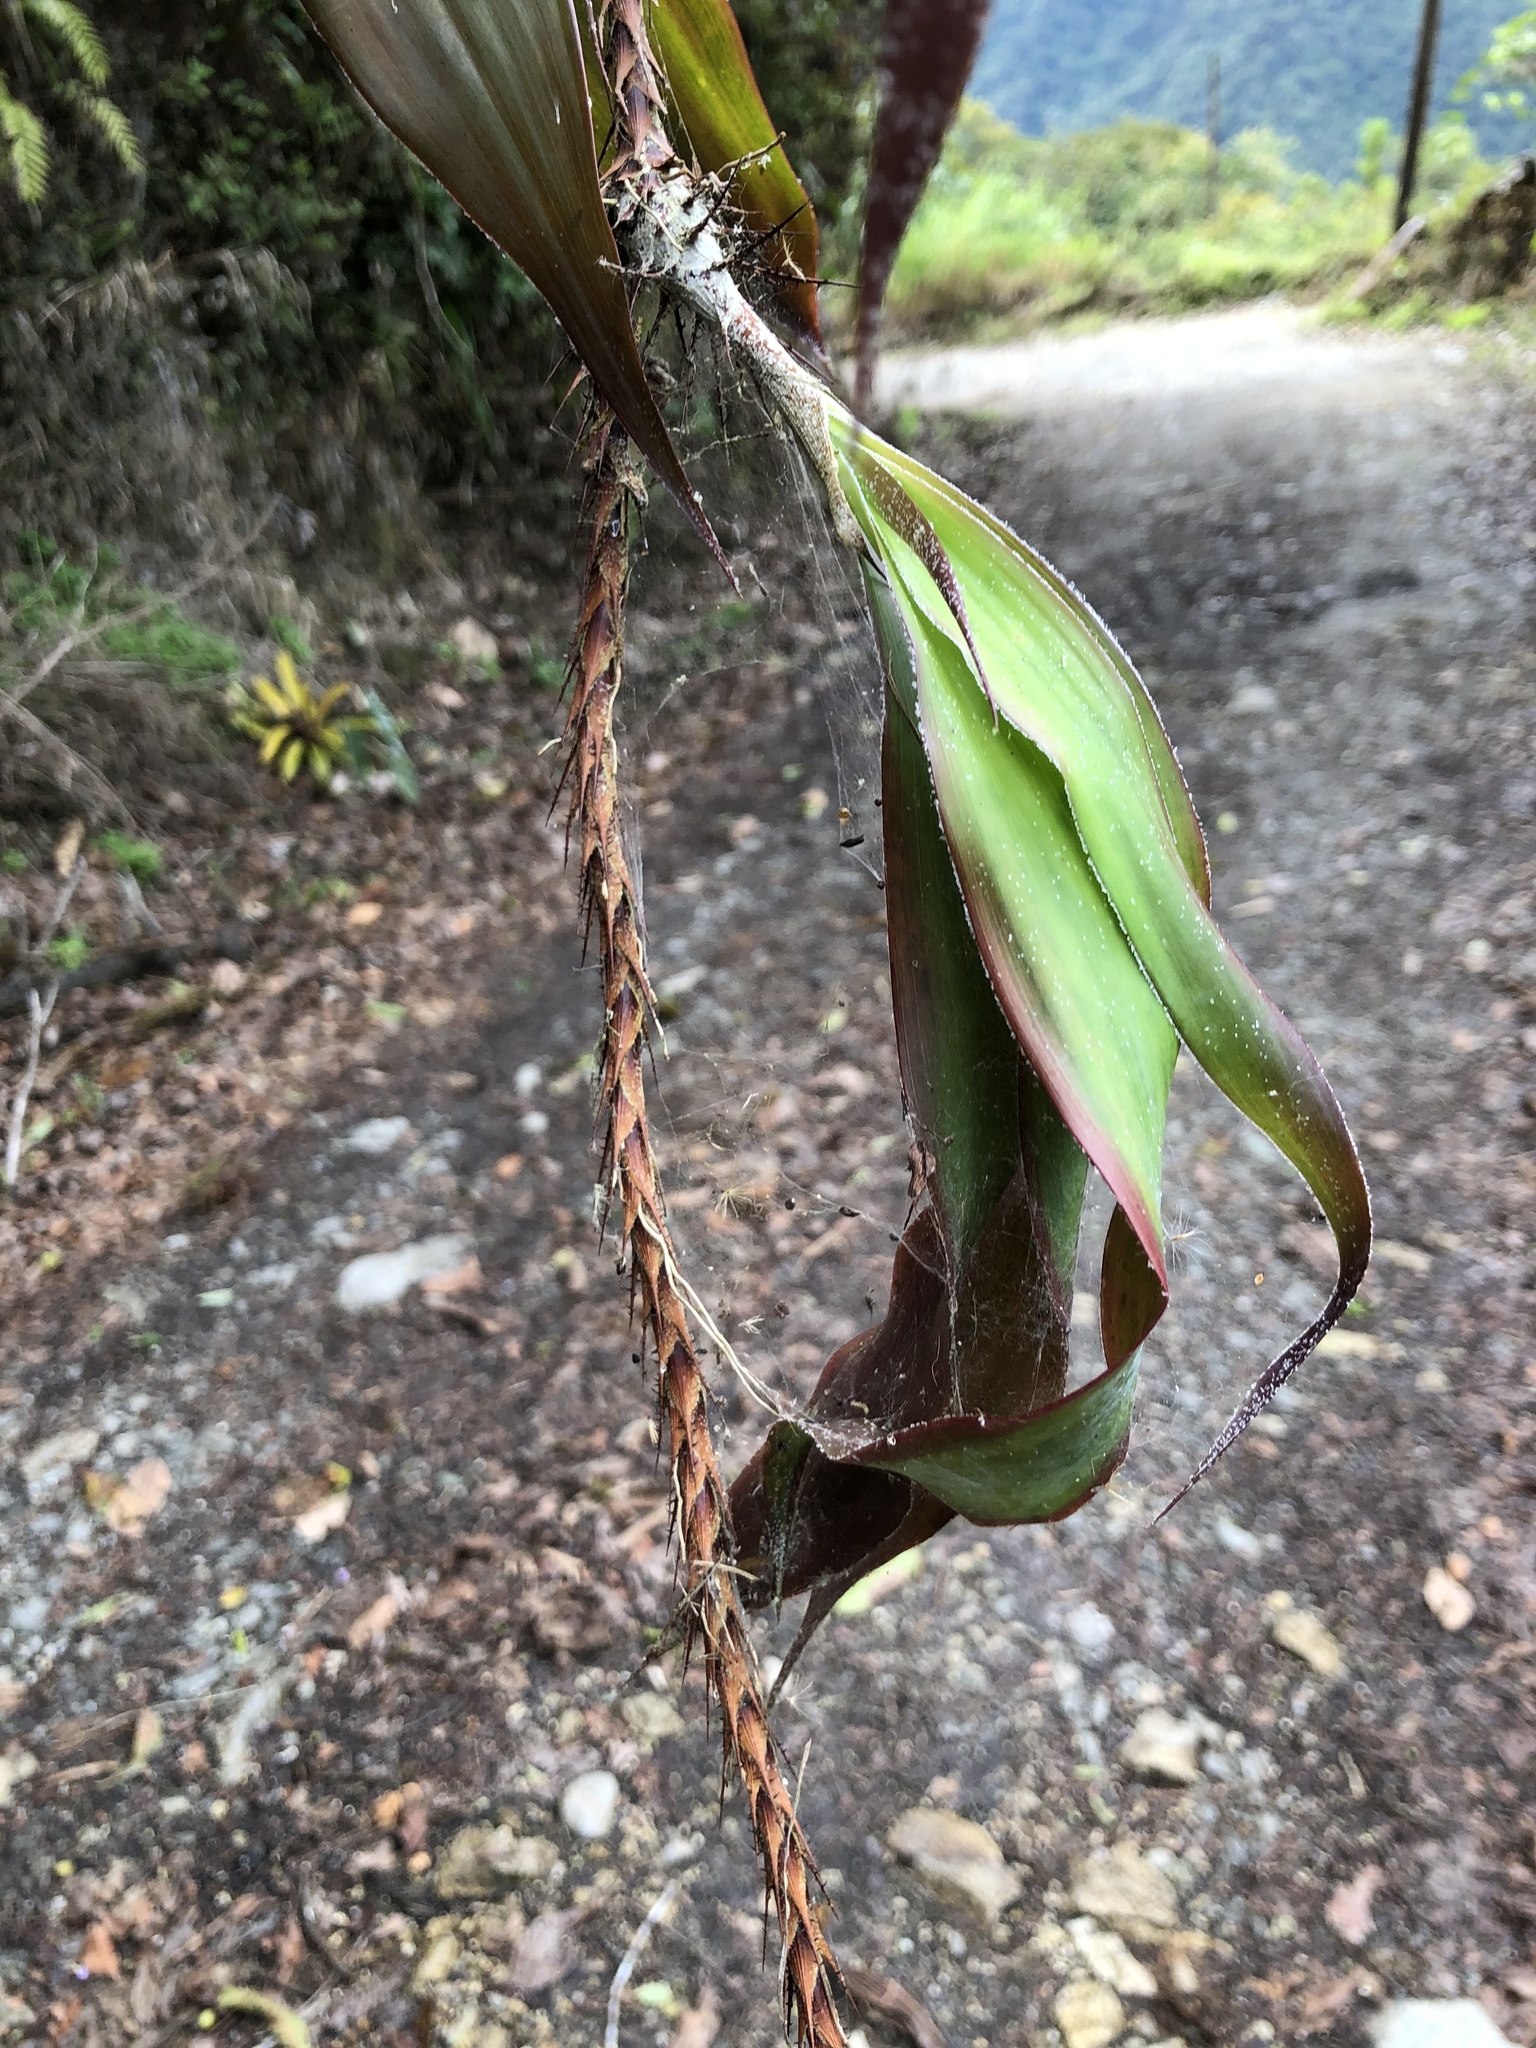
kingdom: Plantae
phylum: Tracheophyta
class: Liliopsida
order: Poales
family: Bromeliaceae
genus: Pitcairnia
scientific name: Pitcairnia riparia
